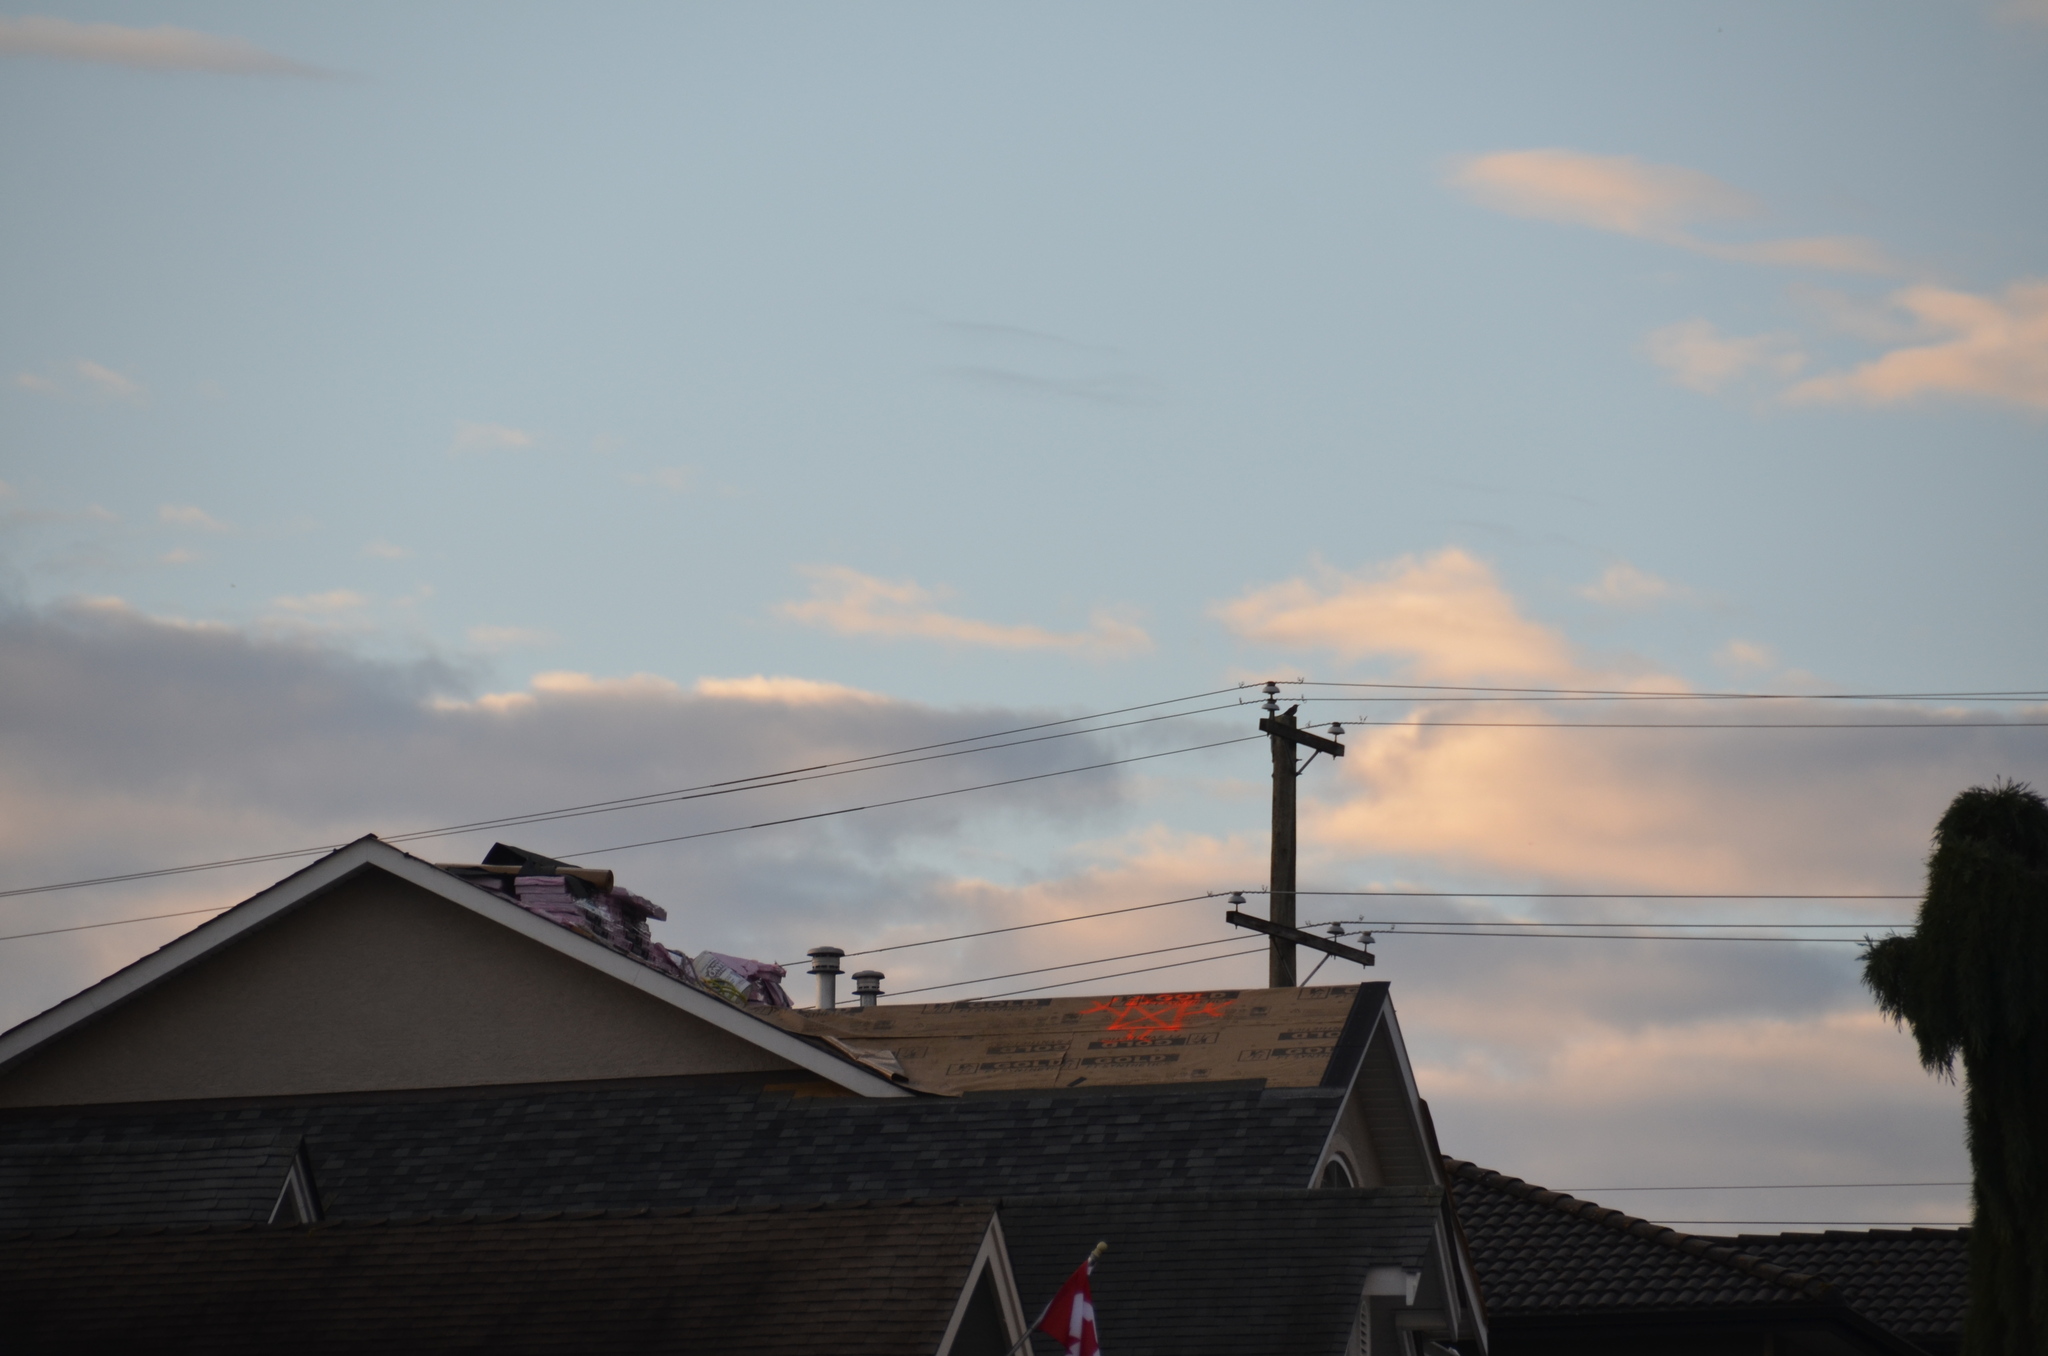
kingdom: Animalia
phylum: Chordata
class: Aves
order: Passeriformes
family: Icteridae
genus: Euphagus
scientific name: Euphagus cyanocephalus
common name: Brewer's blackbird
